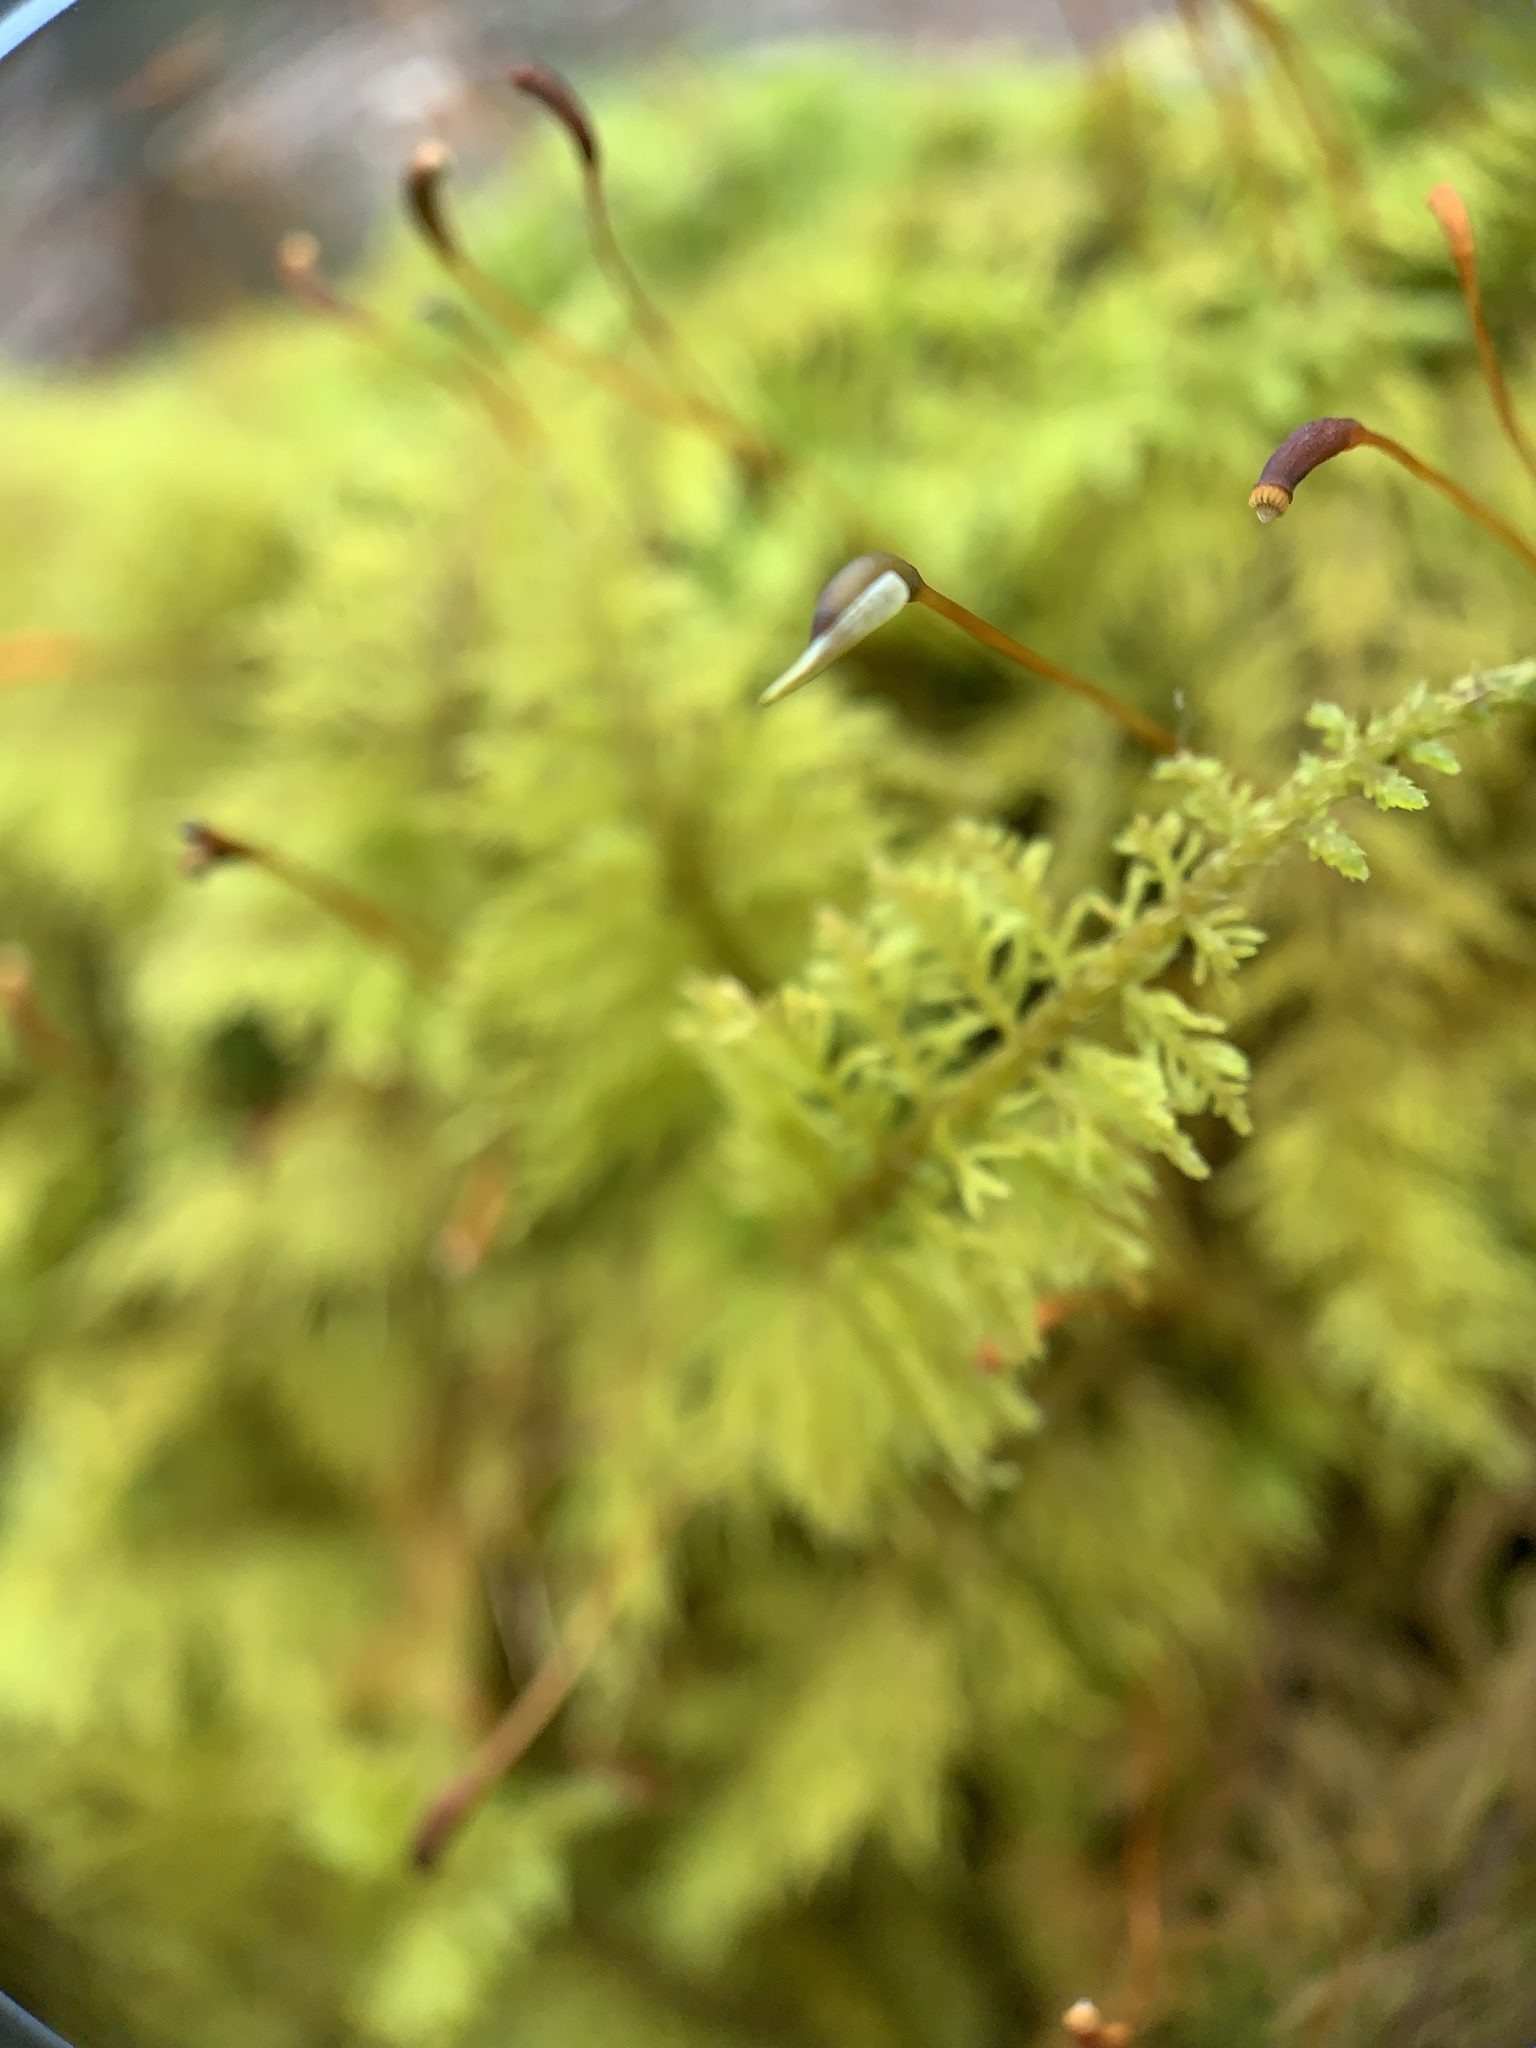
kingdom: Plantae
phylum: Bryophyta
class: Bryopsida
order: Hypnales
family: Thuidiaceae
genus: Thuidium
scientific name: Thuidium delicatulum
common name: Delicate fern moss
